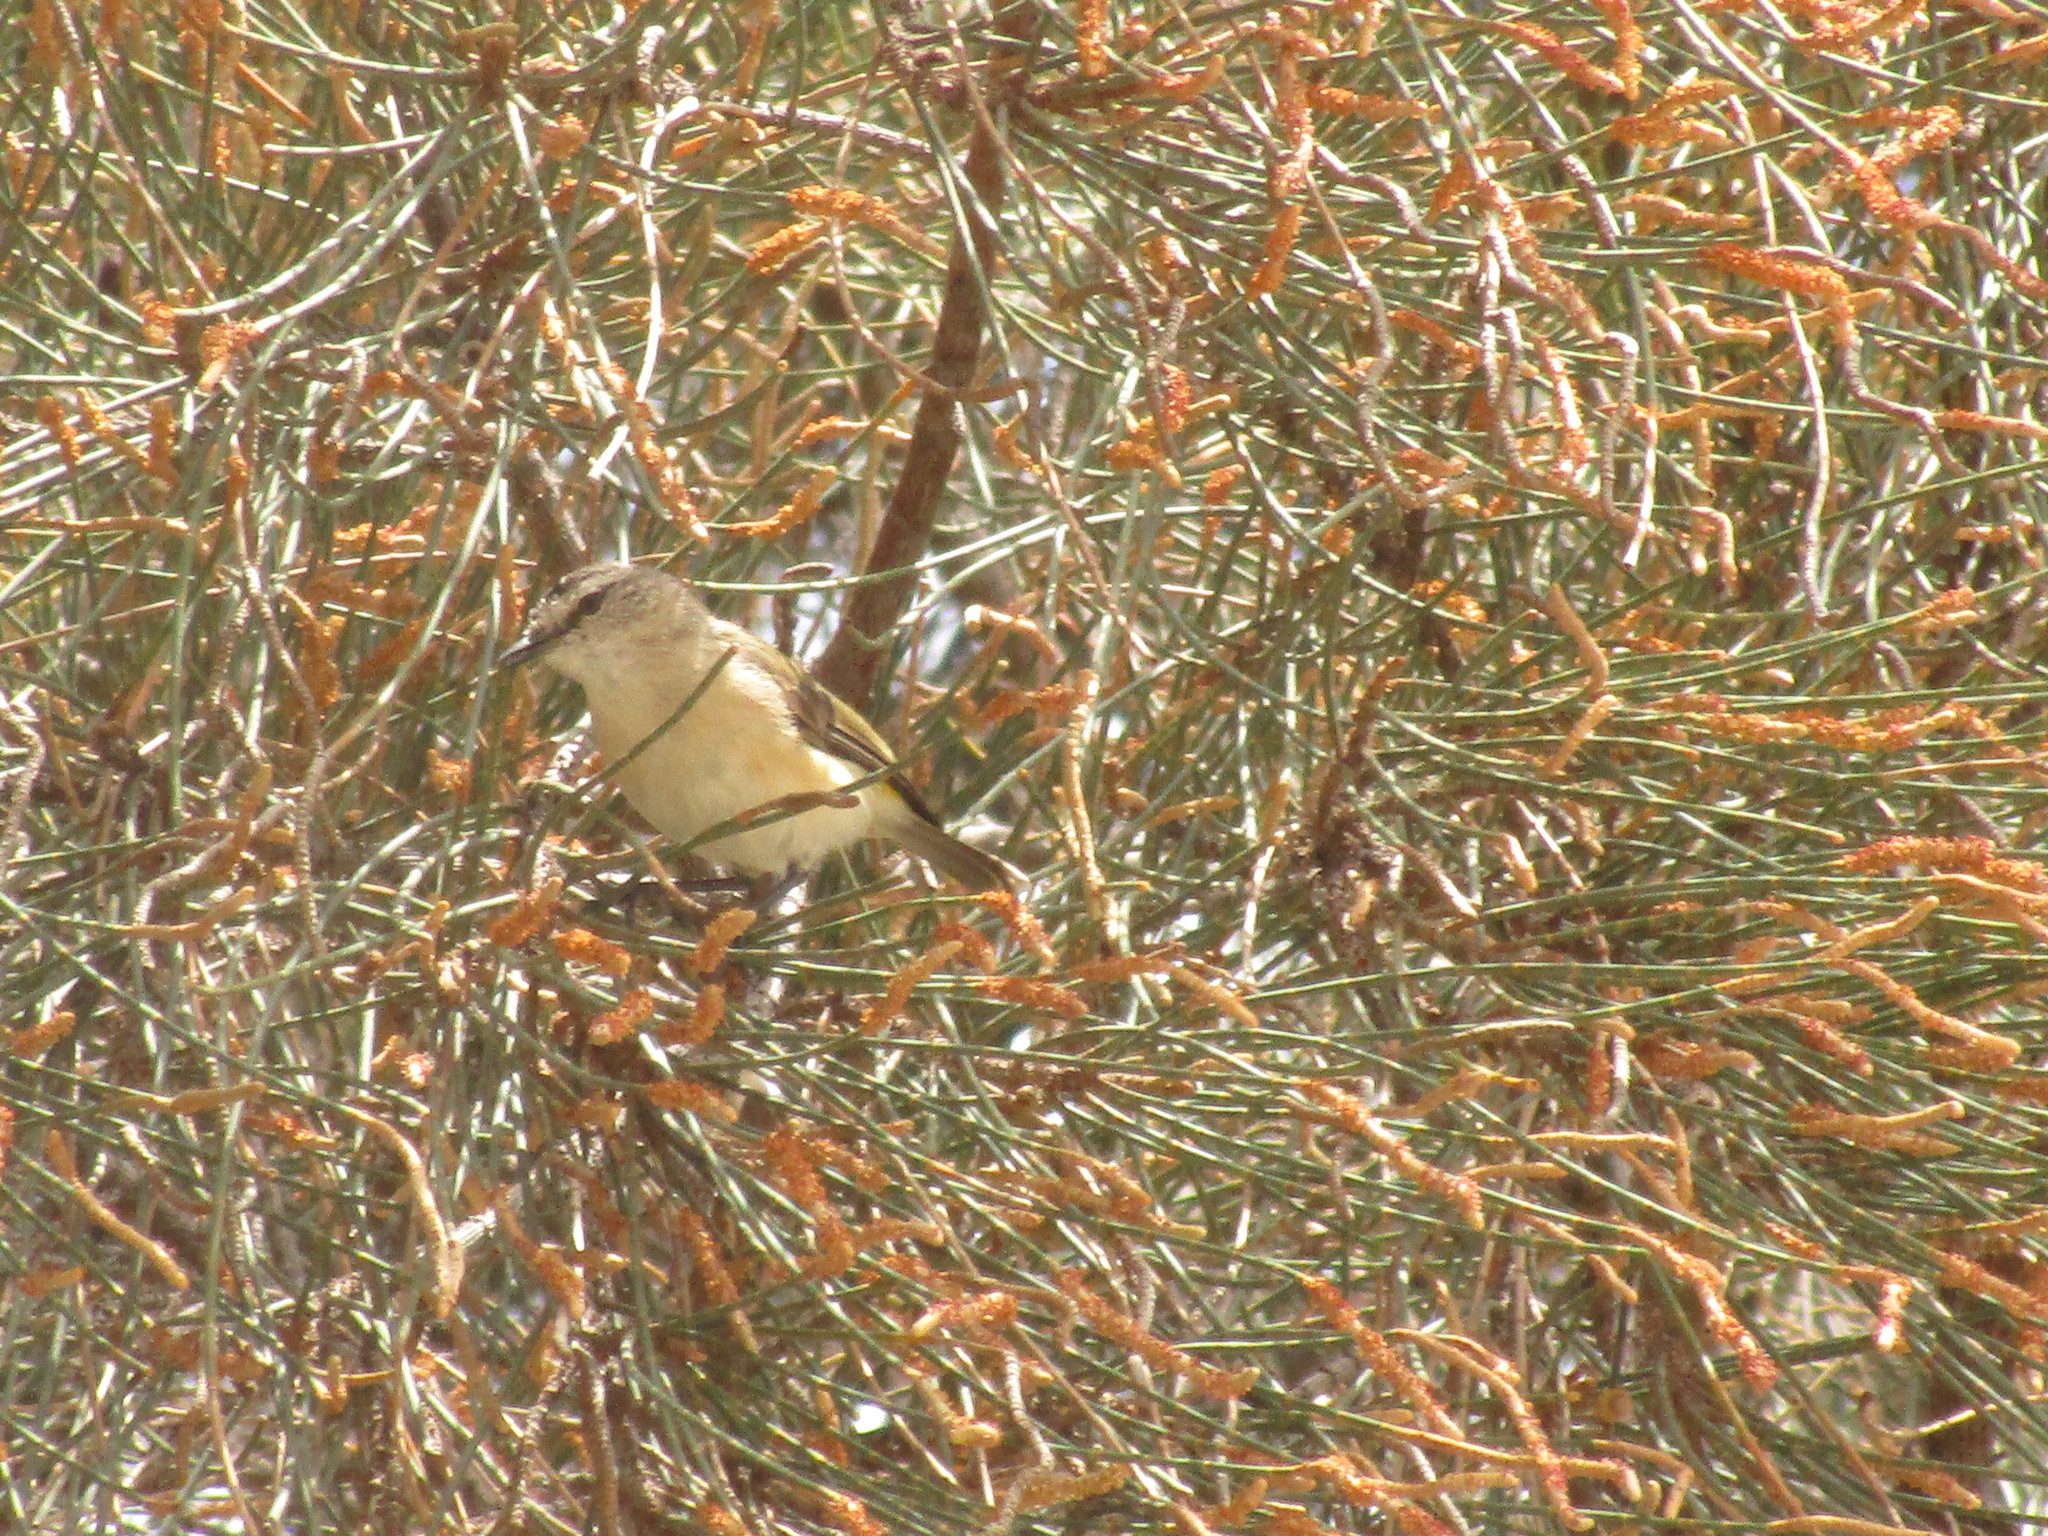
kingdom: Animalia
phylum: Chordata
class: Aves
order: Passeriformes
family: Acanthizidae
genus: Acanthiza
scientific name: Acanthiza chrysorrhoa
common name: Yellow-rumped thornbill
